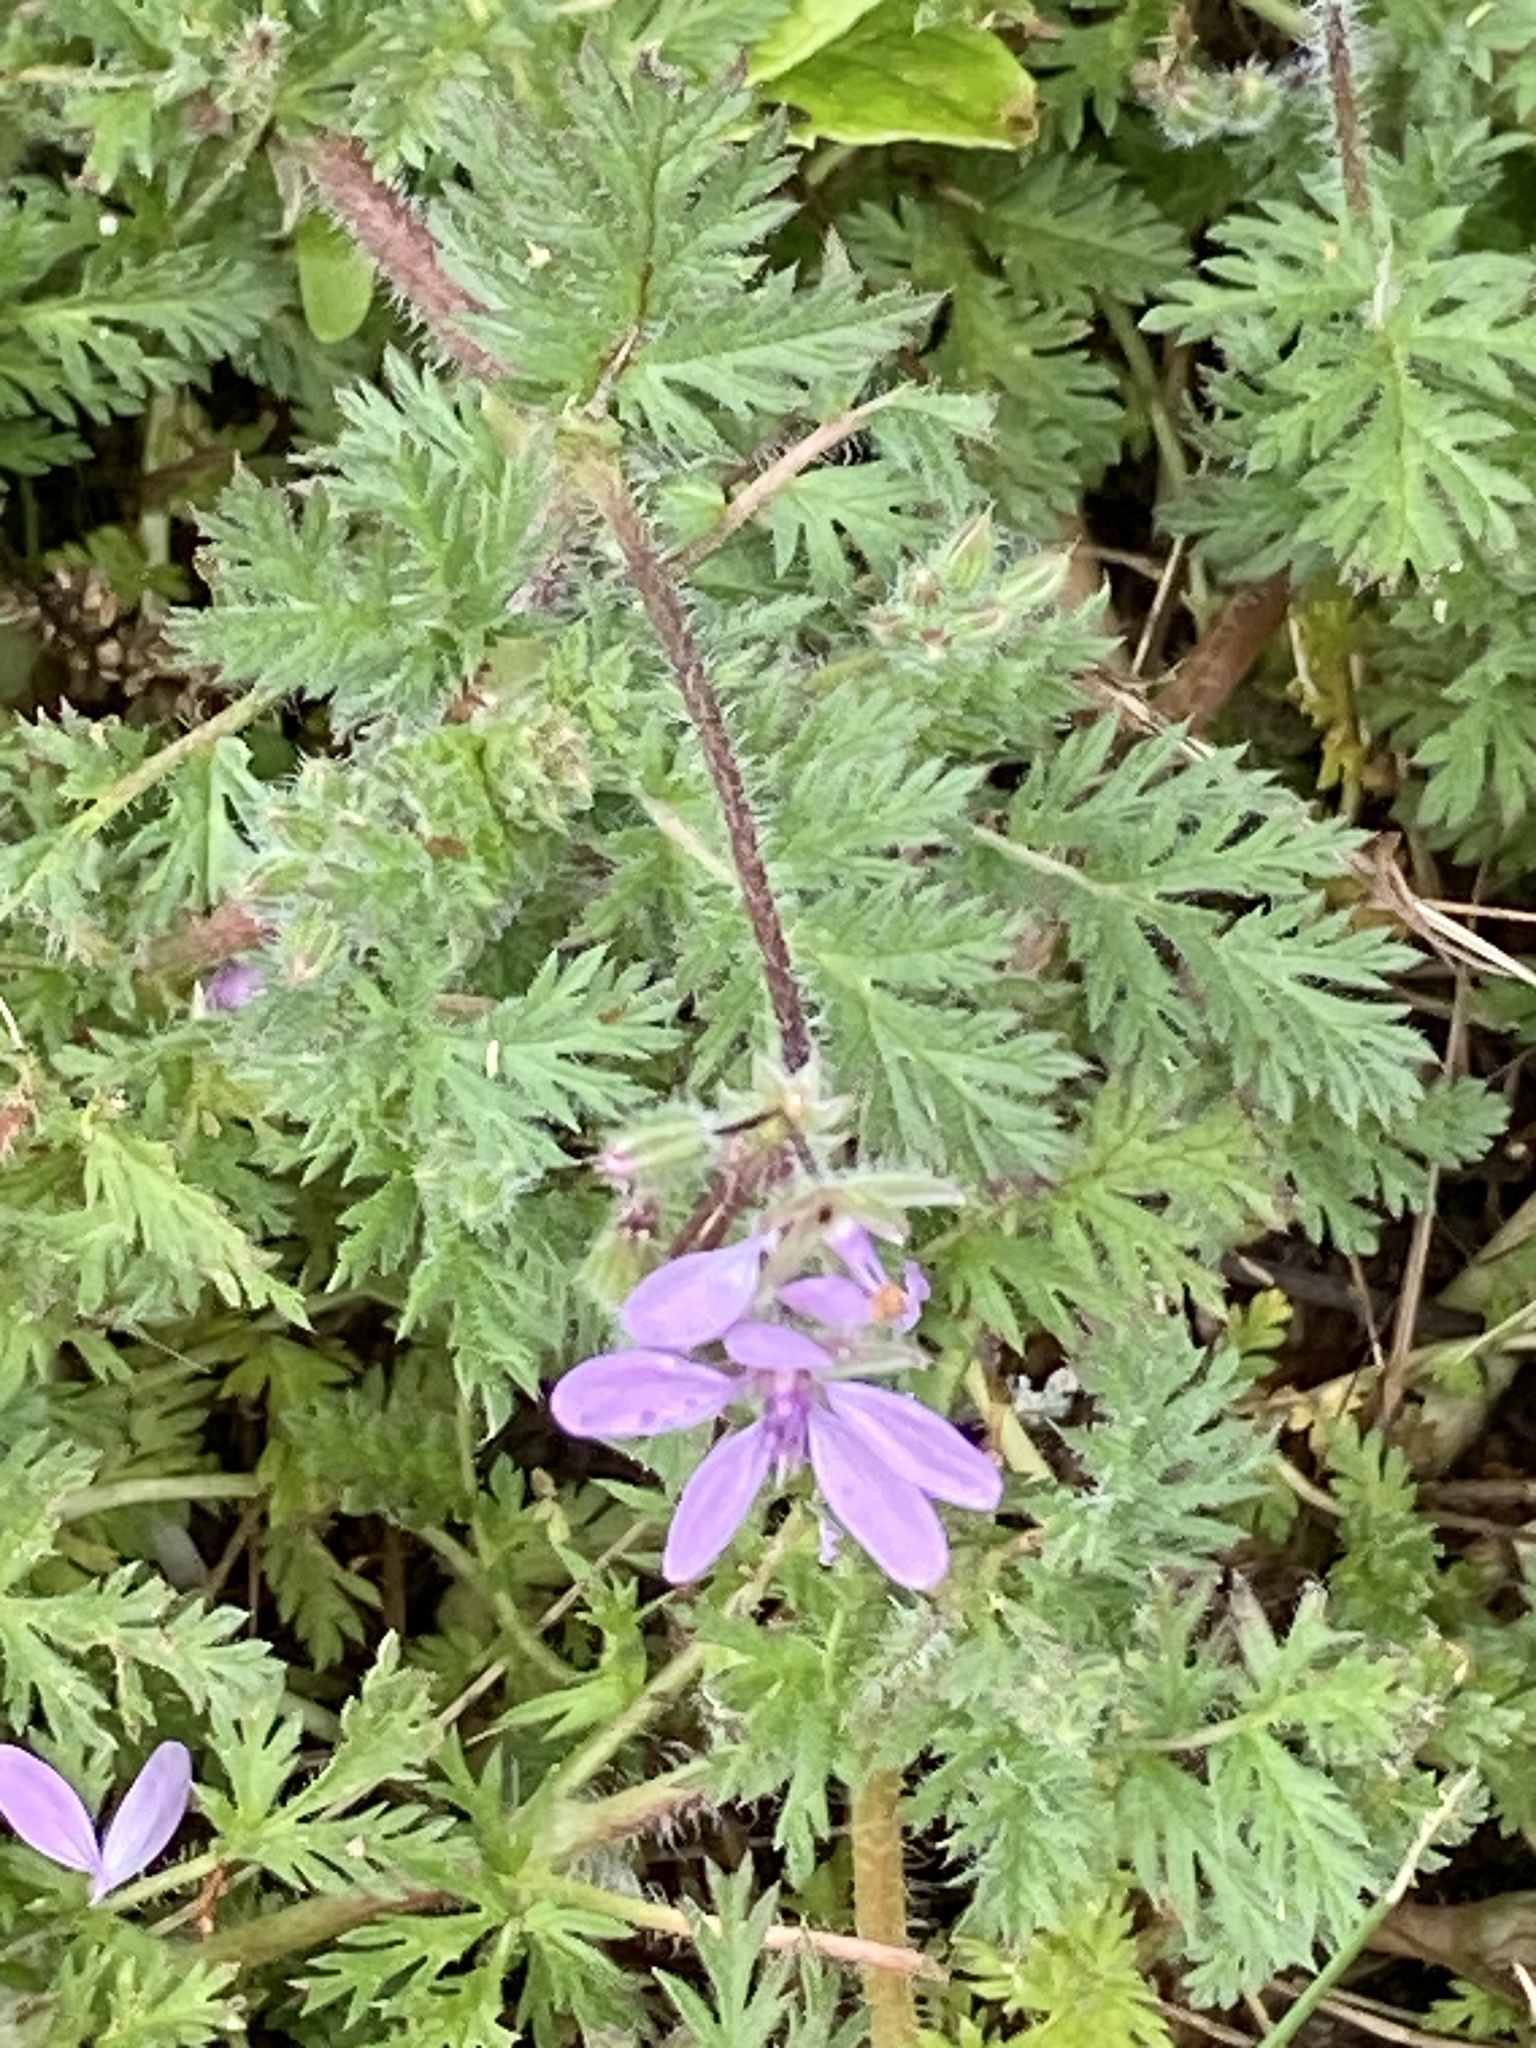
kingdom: Plantae
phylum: Tracheophyta
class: Magnoliopsida
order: Geraniales
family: Geraniaceae
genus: Erodium
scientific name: Erodium cicutarium
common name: Common stork's-bill
